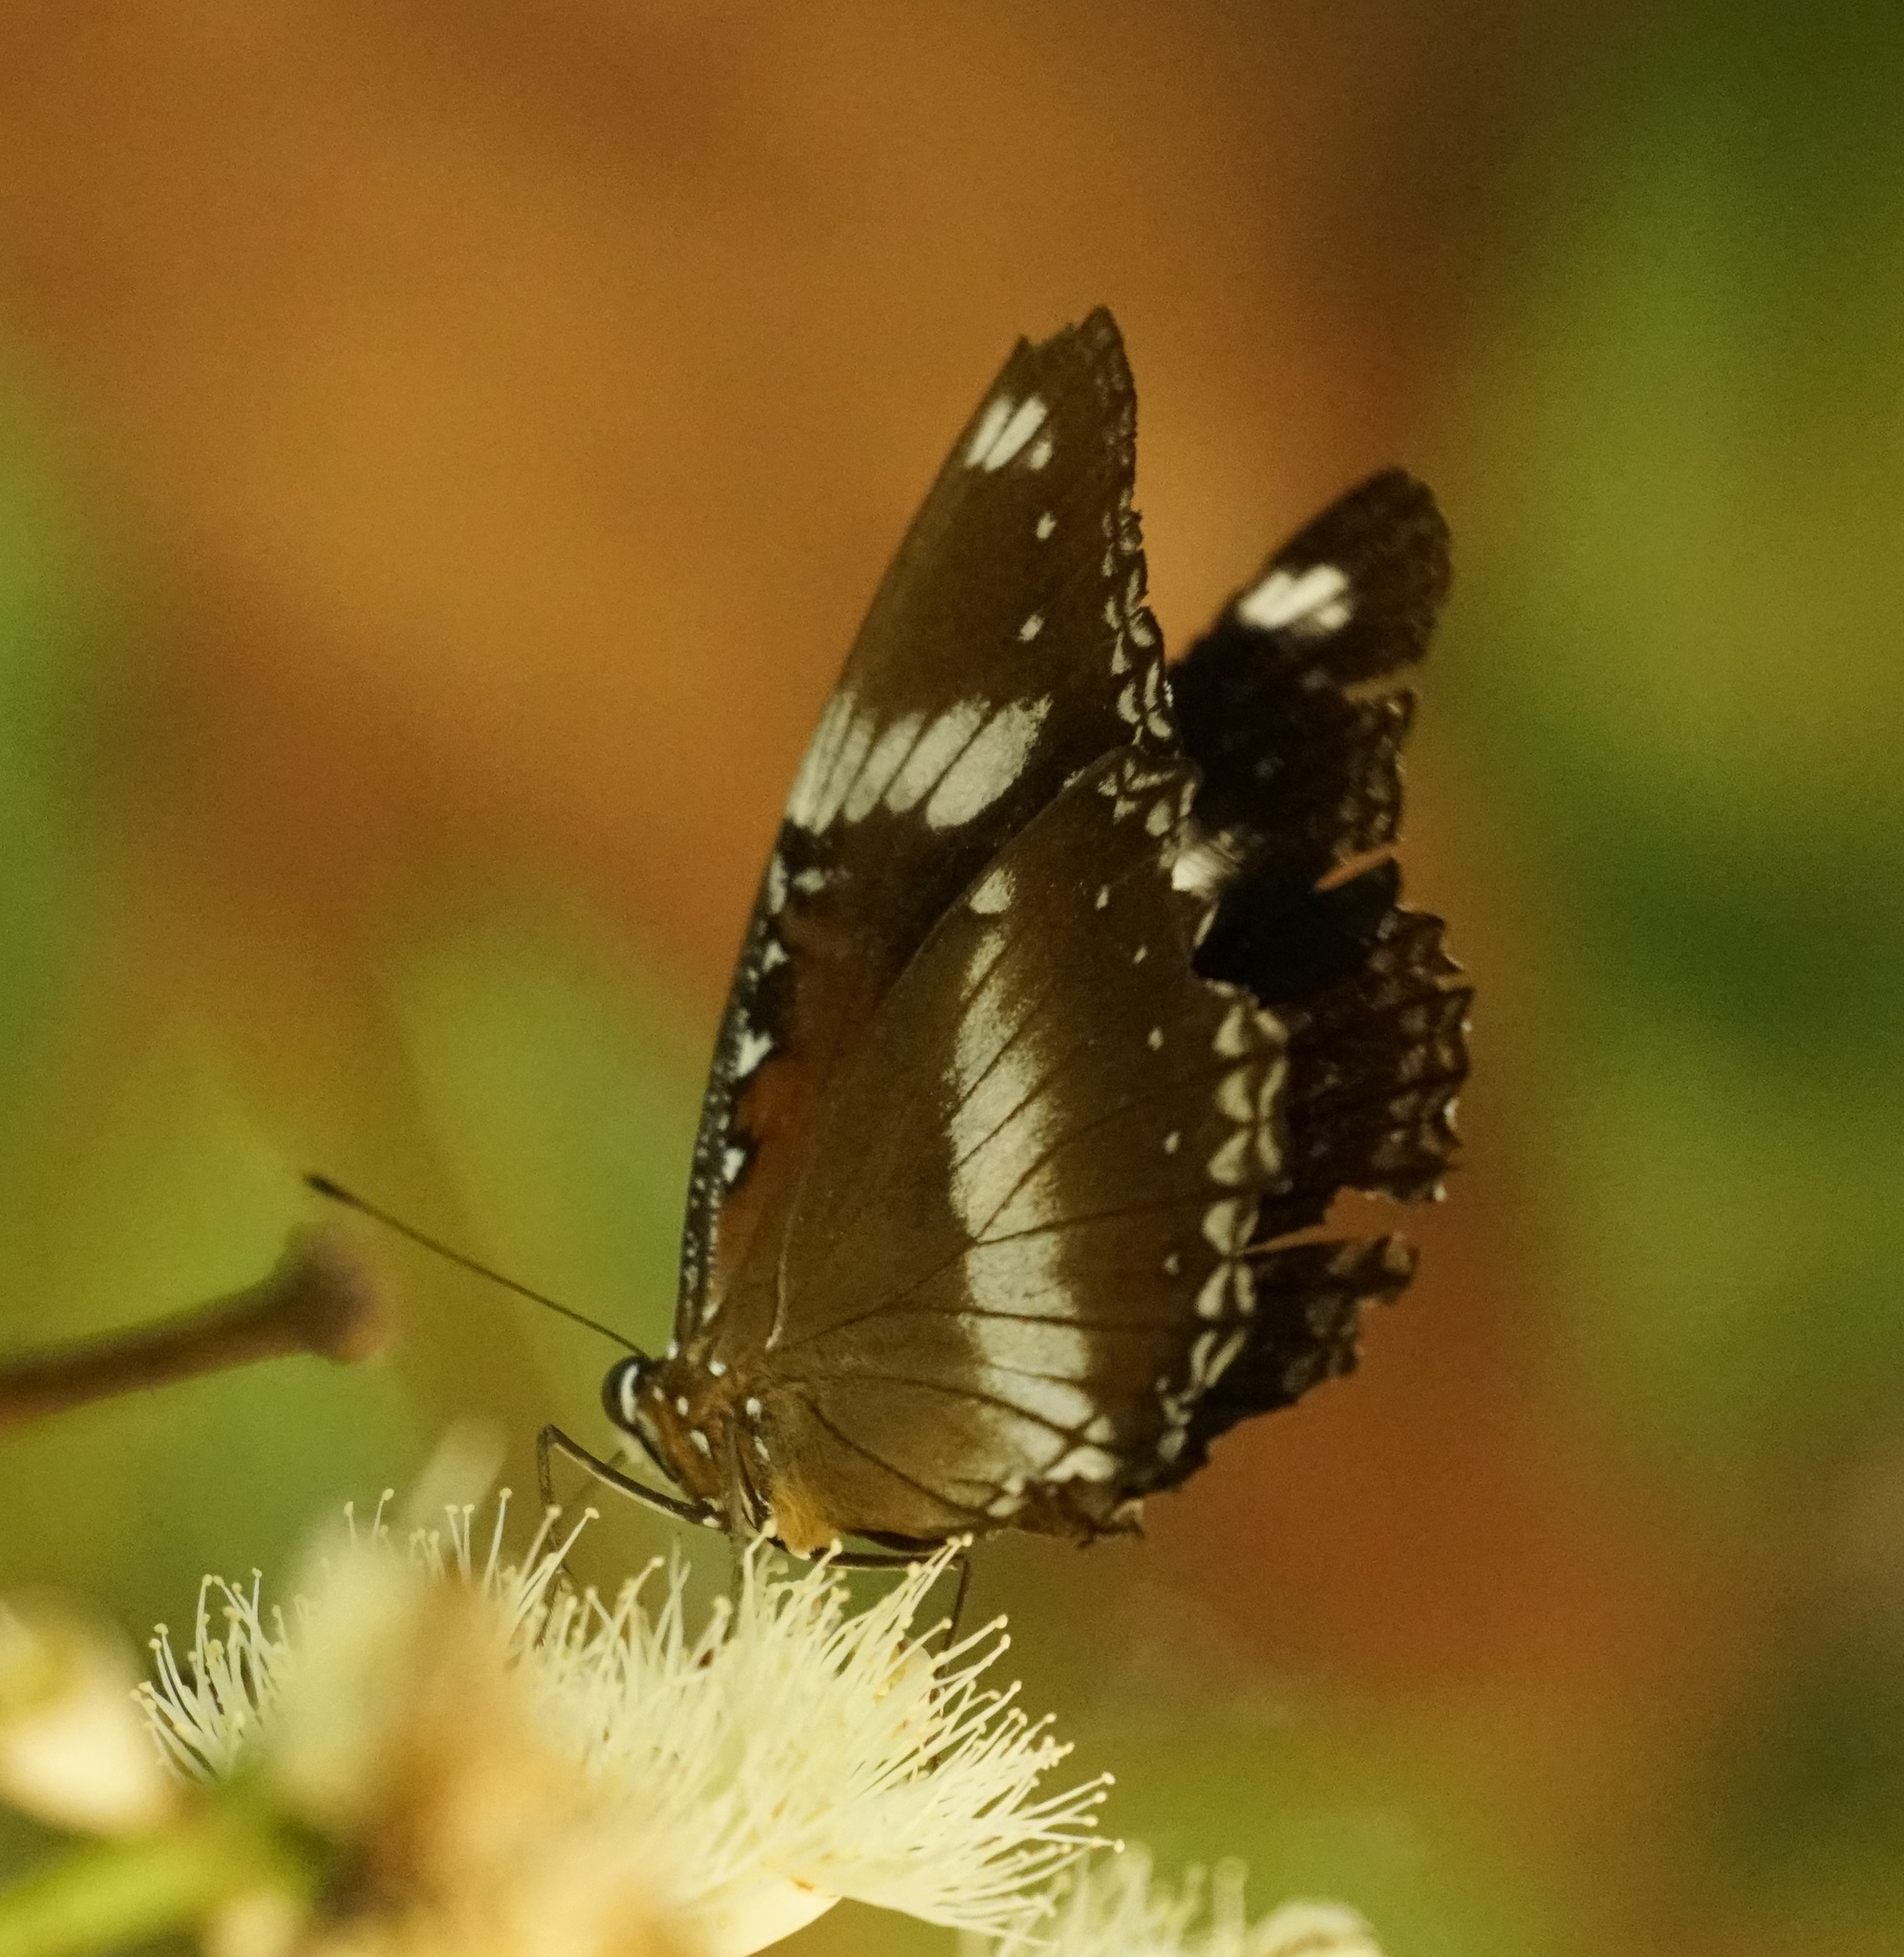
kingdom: Animalia
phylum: Arthropoda
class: Insecta
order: Lepidoptera
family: Nymphalidae
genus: Hypolimnas
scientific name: Hypolimnas bolina
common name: Great eggfly
